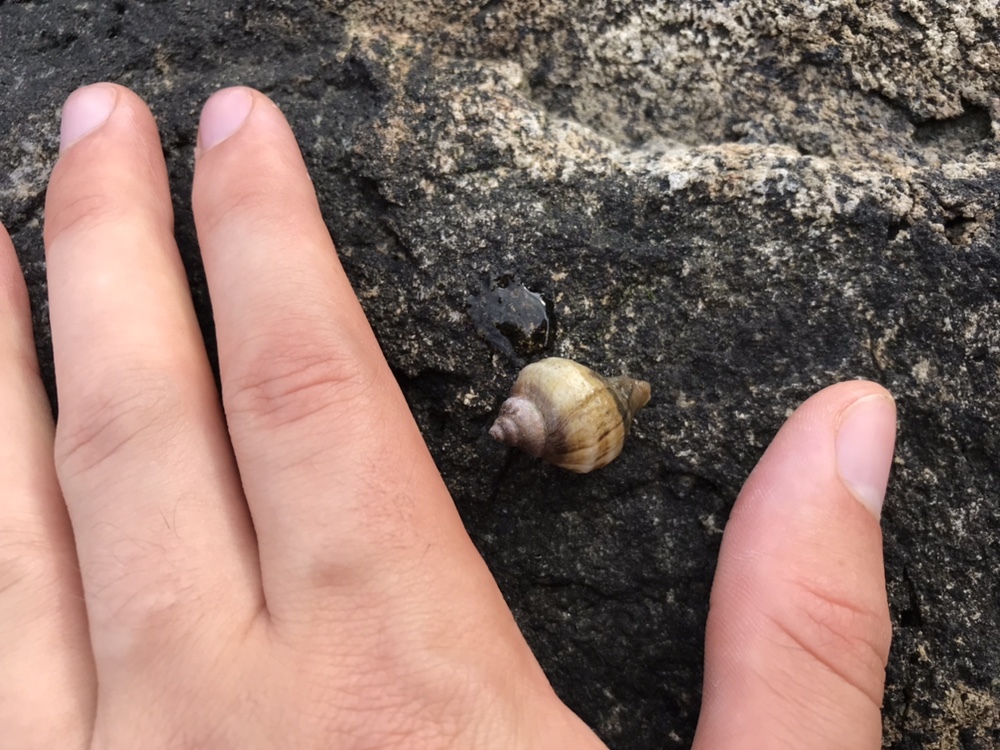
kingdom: Animalia
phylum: Mollusca
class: Gastropoda
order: Neogastropoda
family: Muricidae
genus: Nucella
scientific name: Nucella lamellosa
